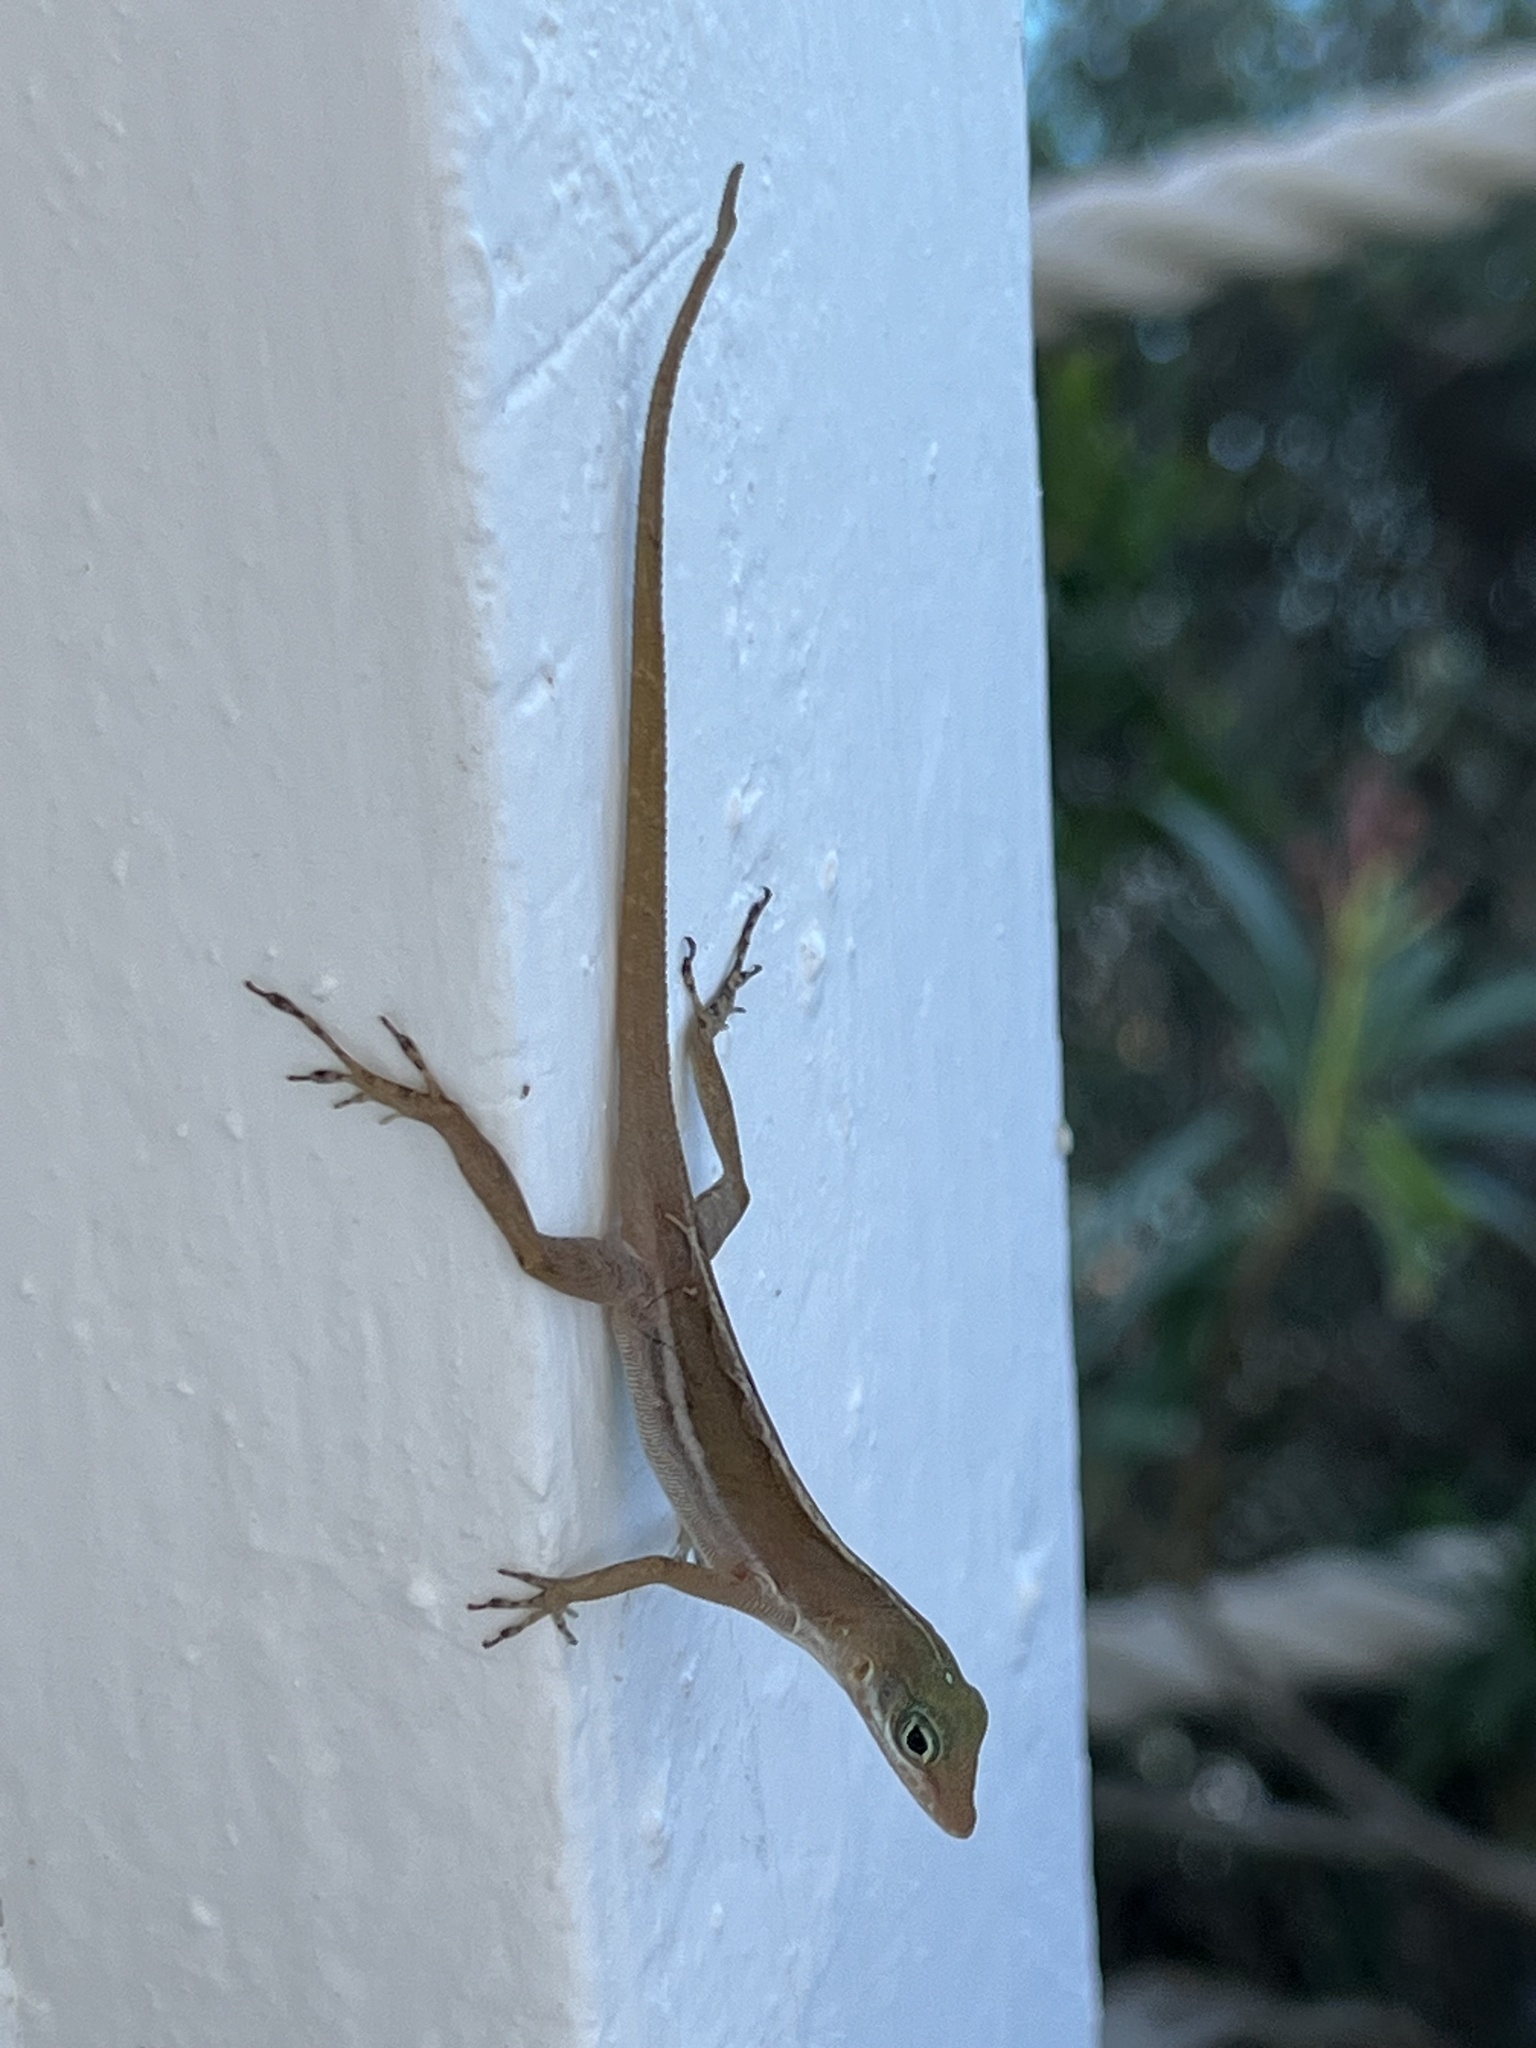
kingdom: Animalia
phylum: Chordata
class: Squamata
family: Dactyloidae
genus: Anolis
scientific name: Anolis wattsii
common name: Antigua bank bush anole
